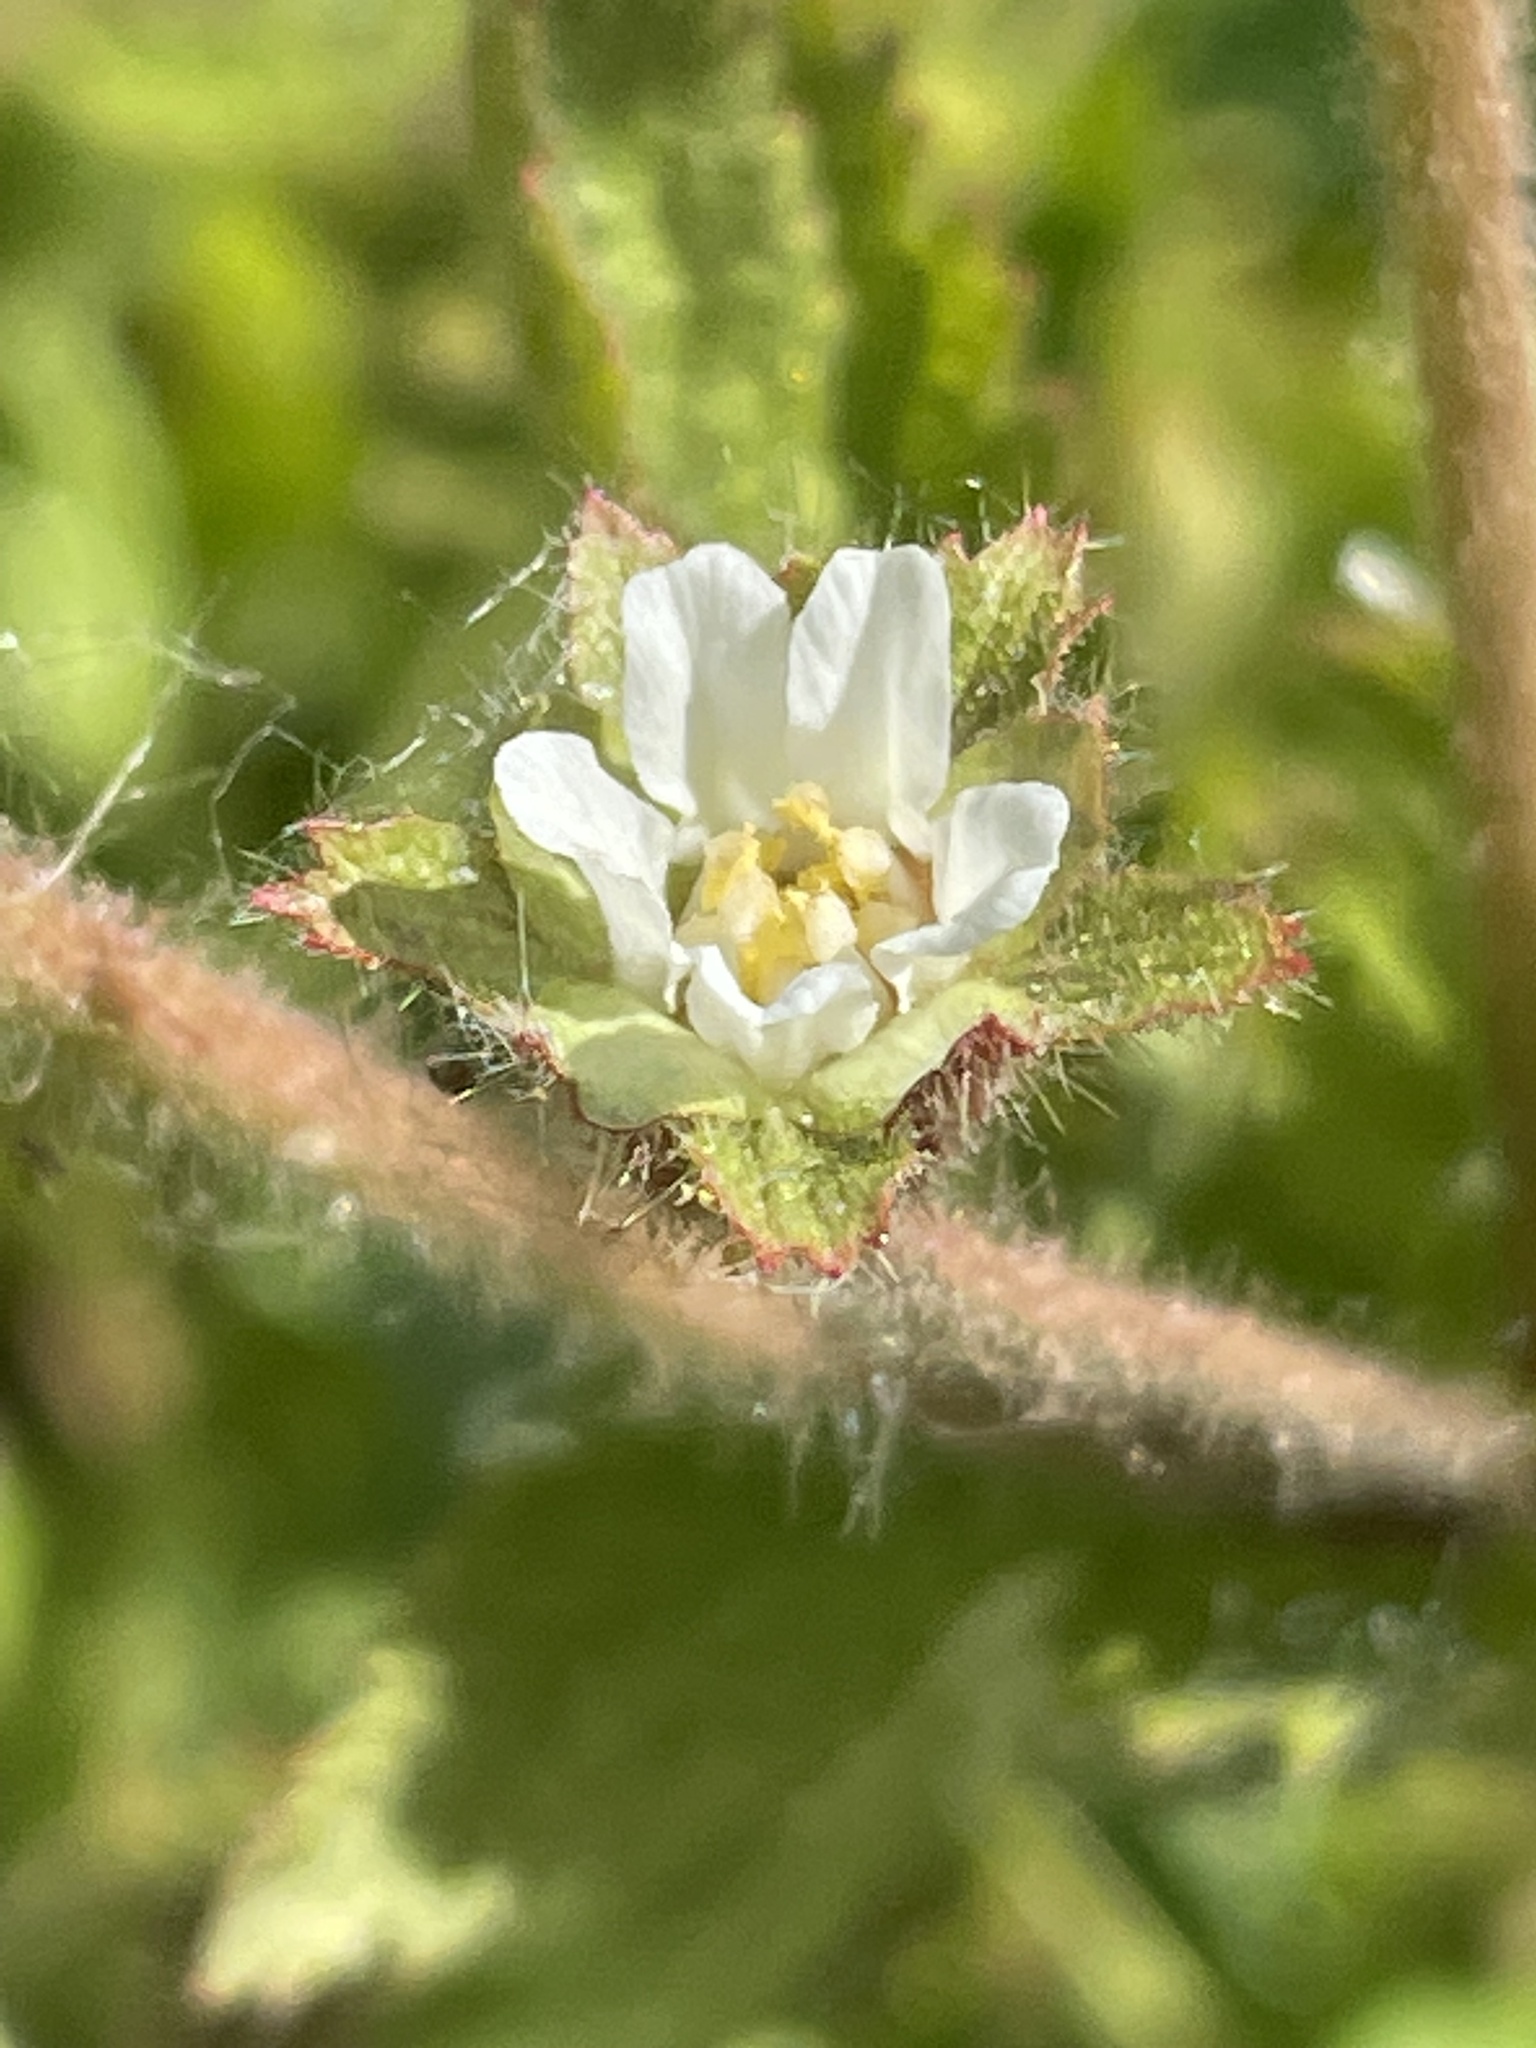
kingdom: Plantae
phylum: Tracheophyta
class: Magnoliopsida
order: Rosales
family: Rosaceae
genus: Potentilla
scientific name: Potentilla californica
